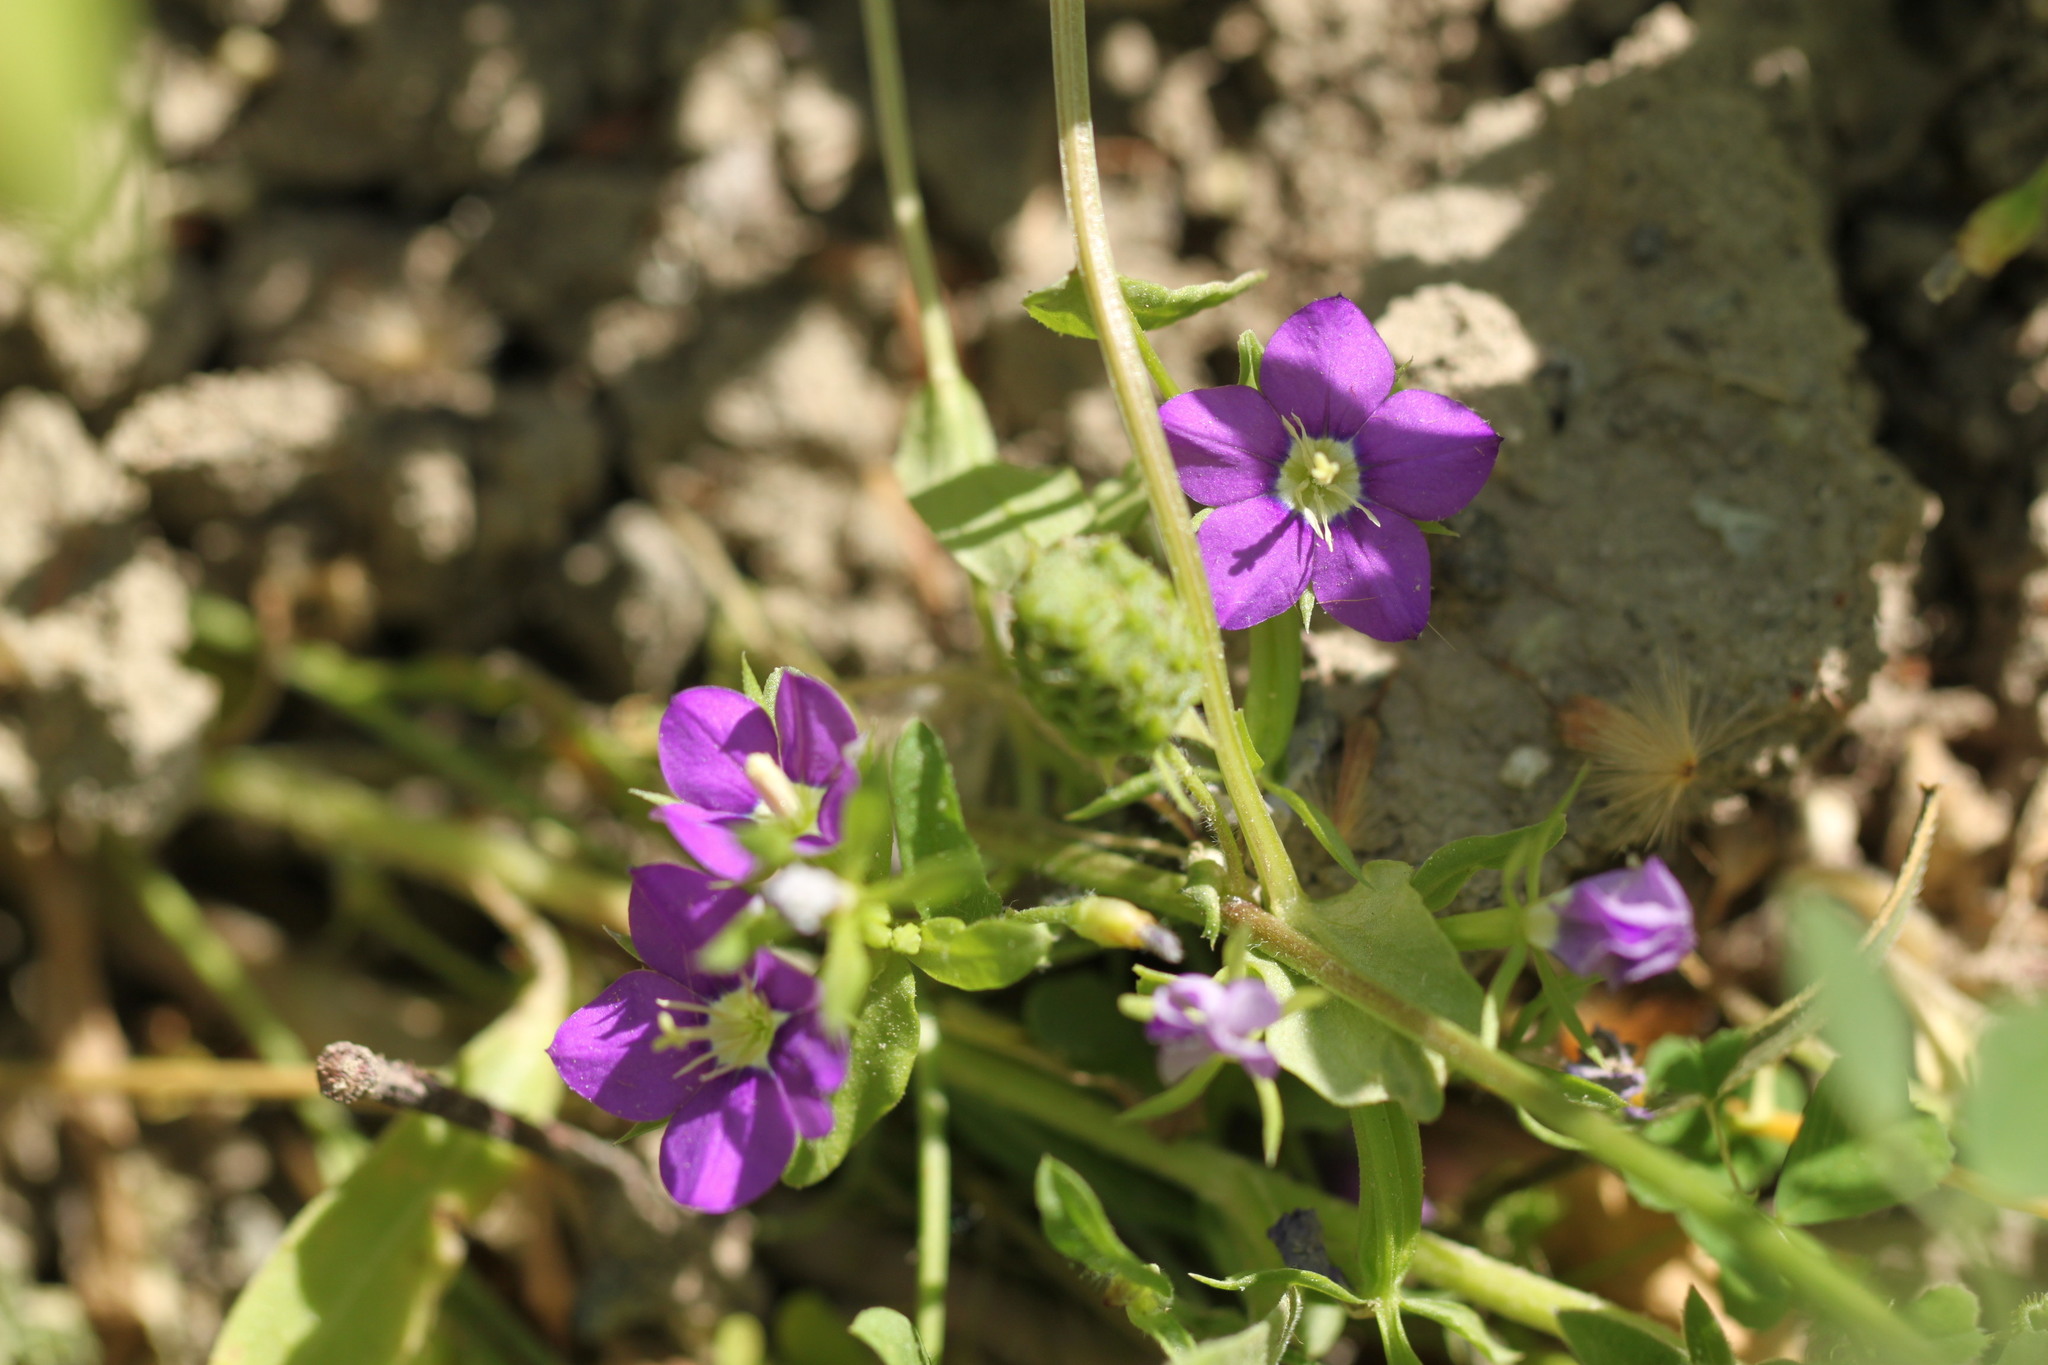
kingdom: Plantae
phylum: Tracheophyta
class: Magnoliopsida
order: Asterales
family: Campanulaceae
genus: Legousia
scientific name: Legousia speculum-veneris
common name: Large venus's-looking-glass
